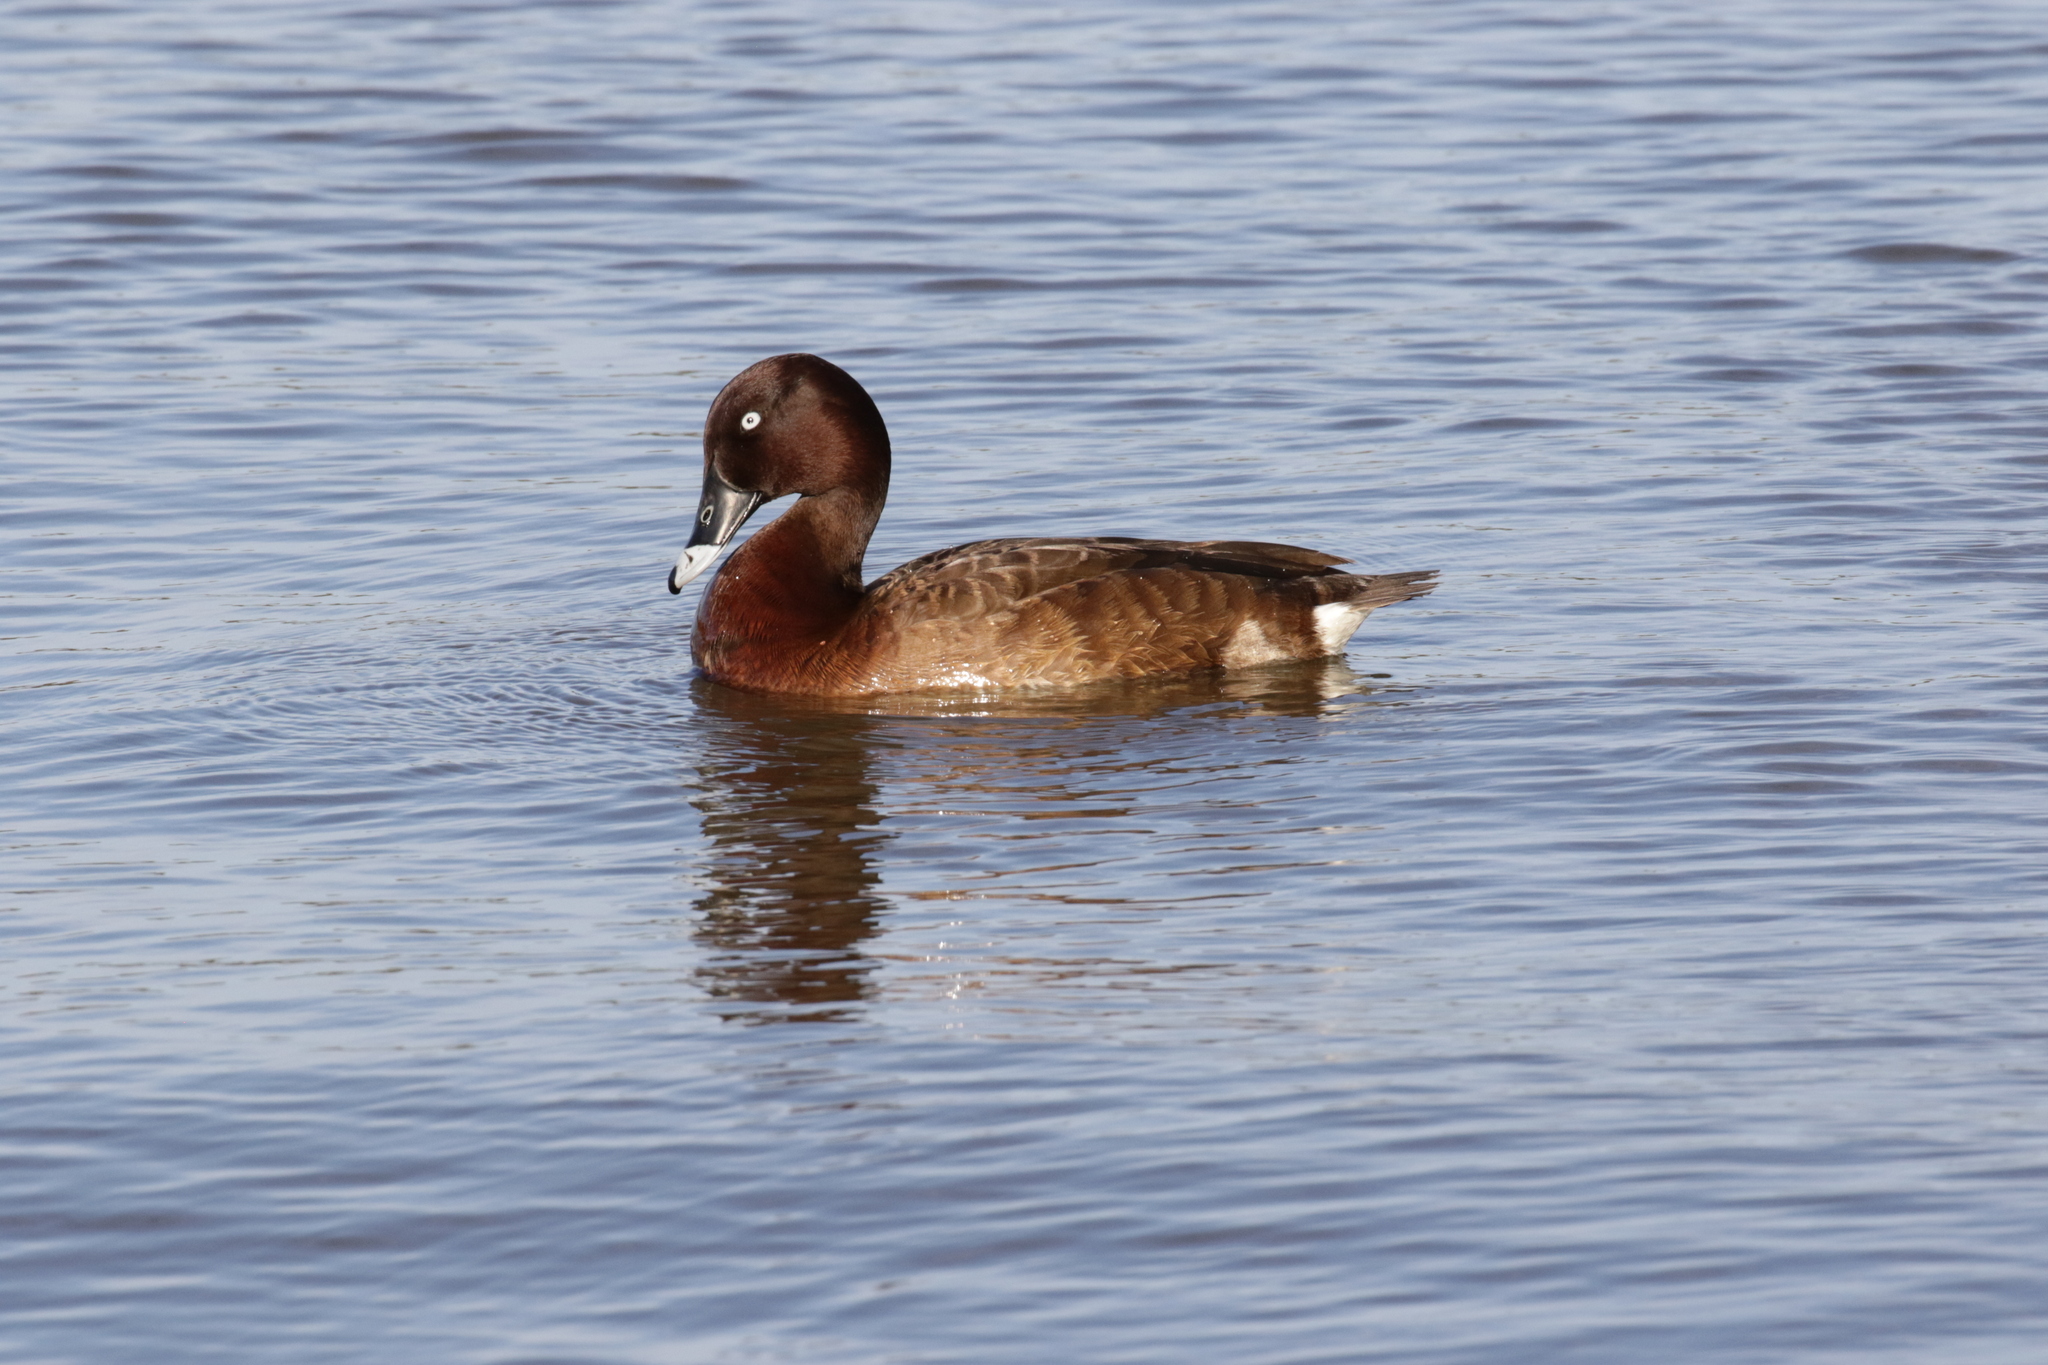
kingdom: Animalia
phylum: Chordata
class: Aves
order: Anseriformes
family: Anatidae
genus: Aythya
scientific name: Aythya australis
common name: Hardhead
